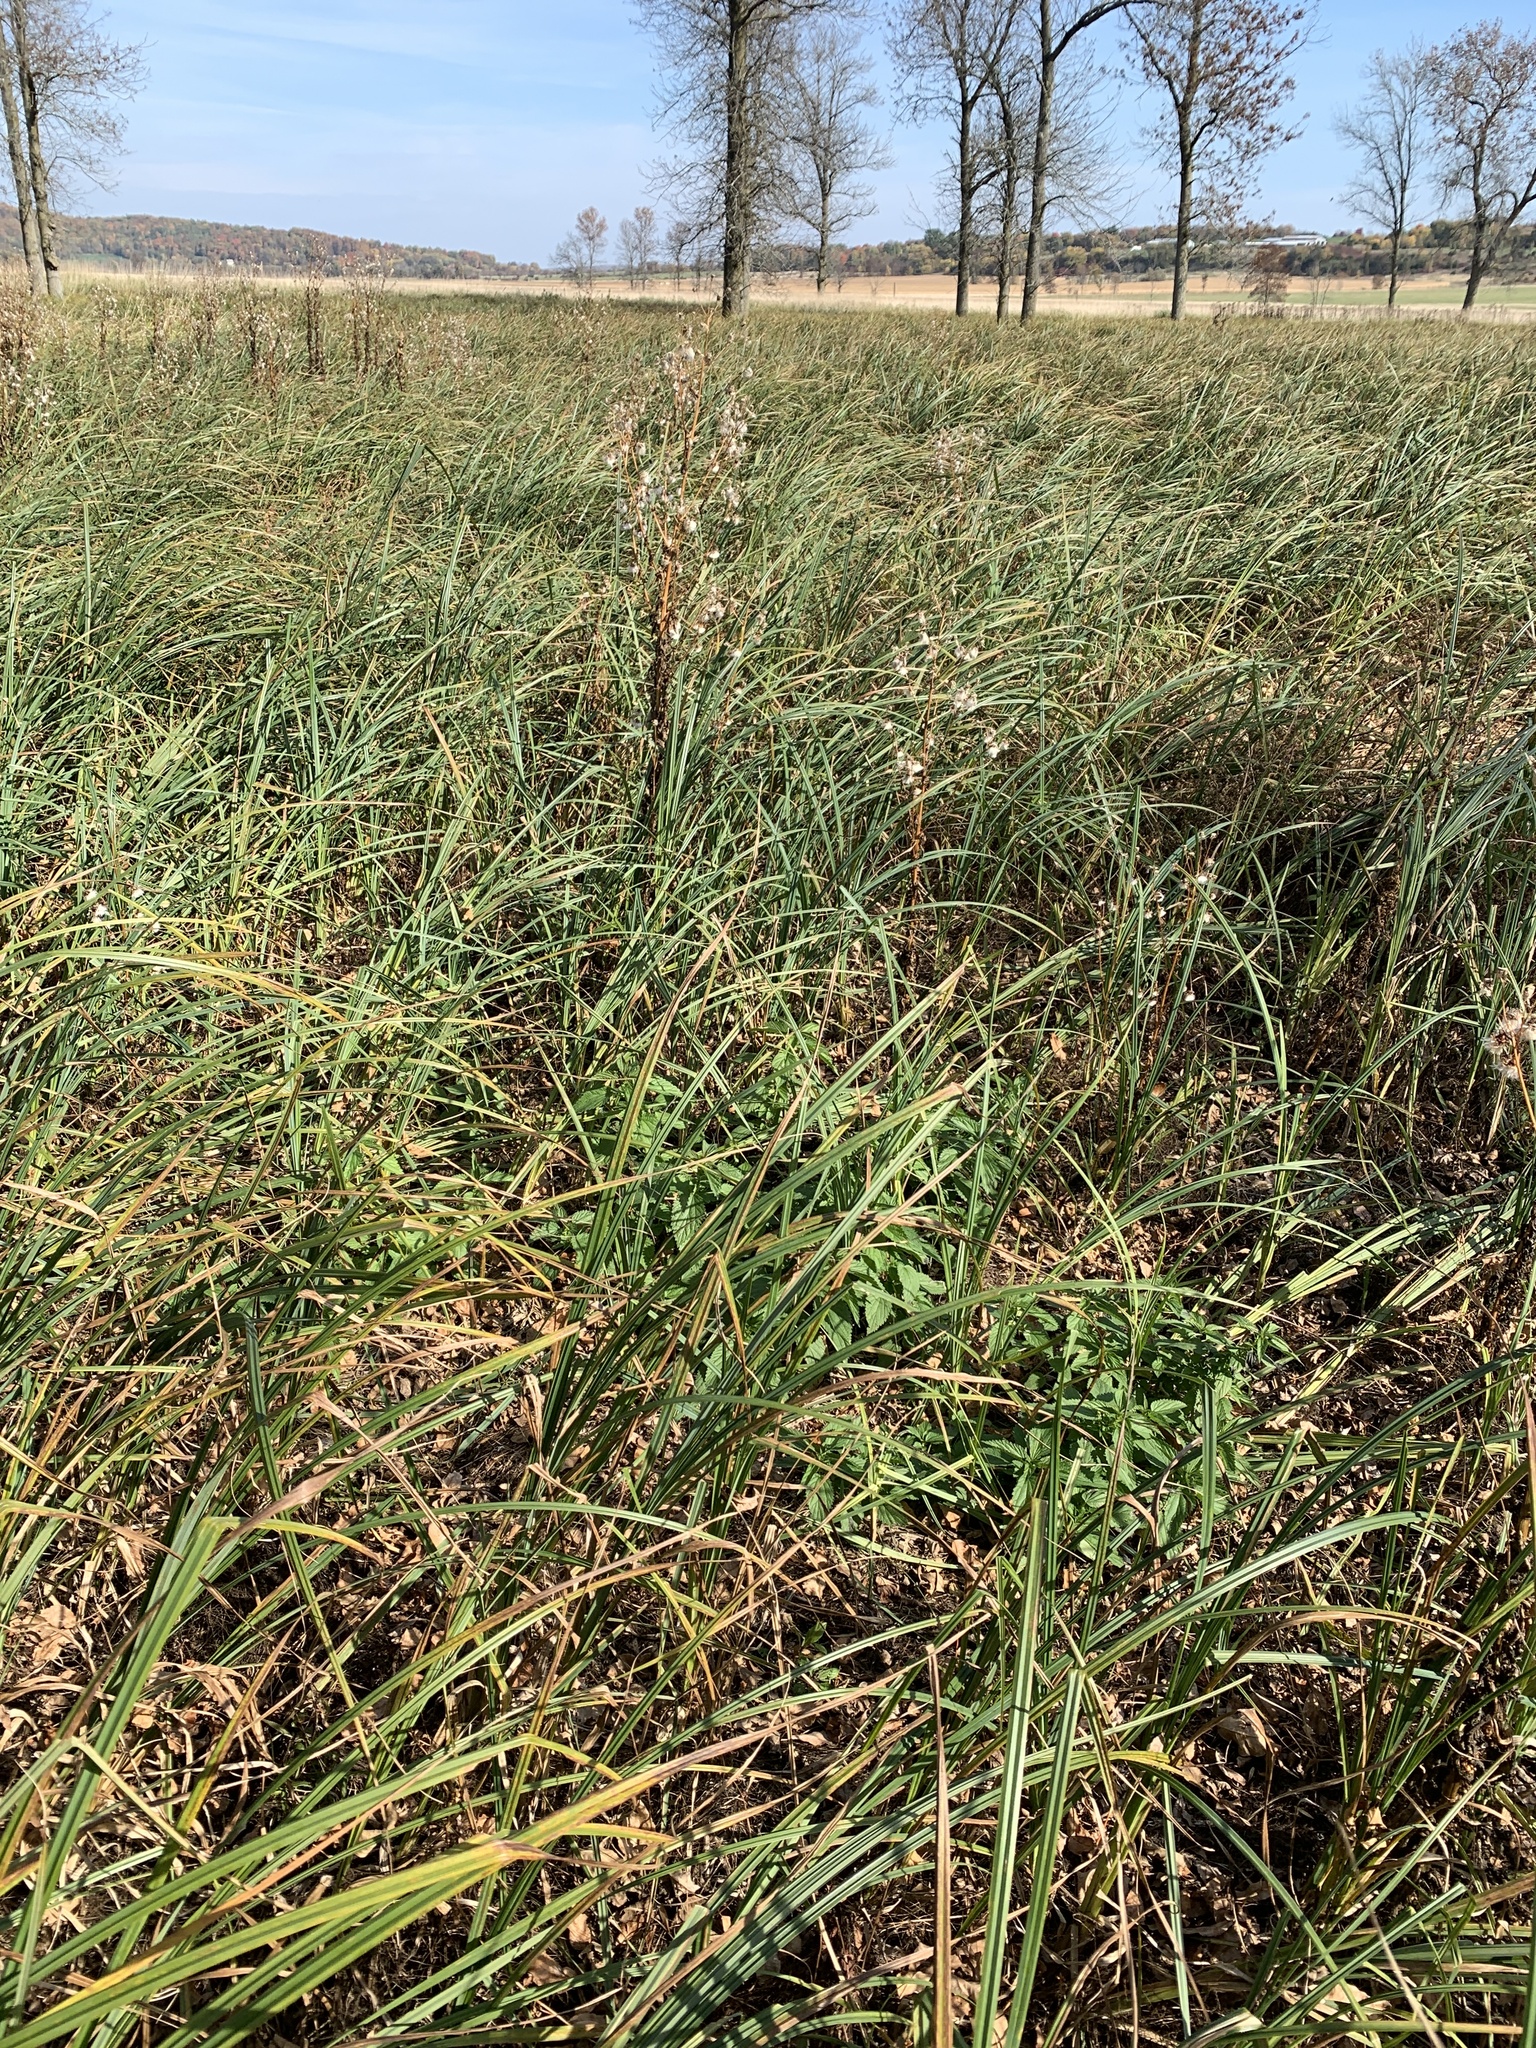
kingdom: Plantae
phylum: Tracheophyta
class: Liliopsida
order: Poales
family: Cyperaceae
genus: Carex
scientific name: Carex lacustris
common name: Common lake sedge
